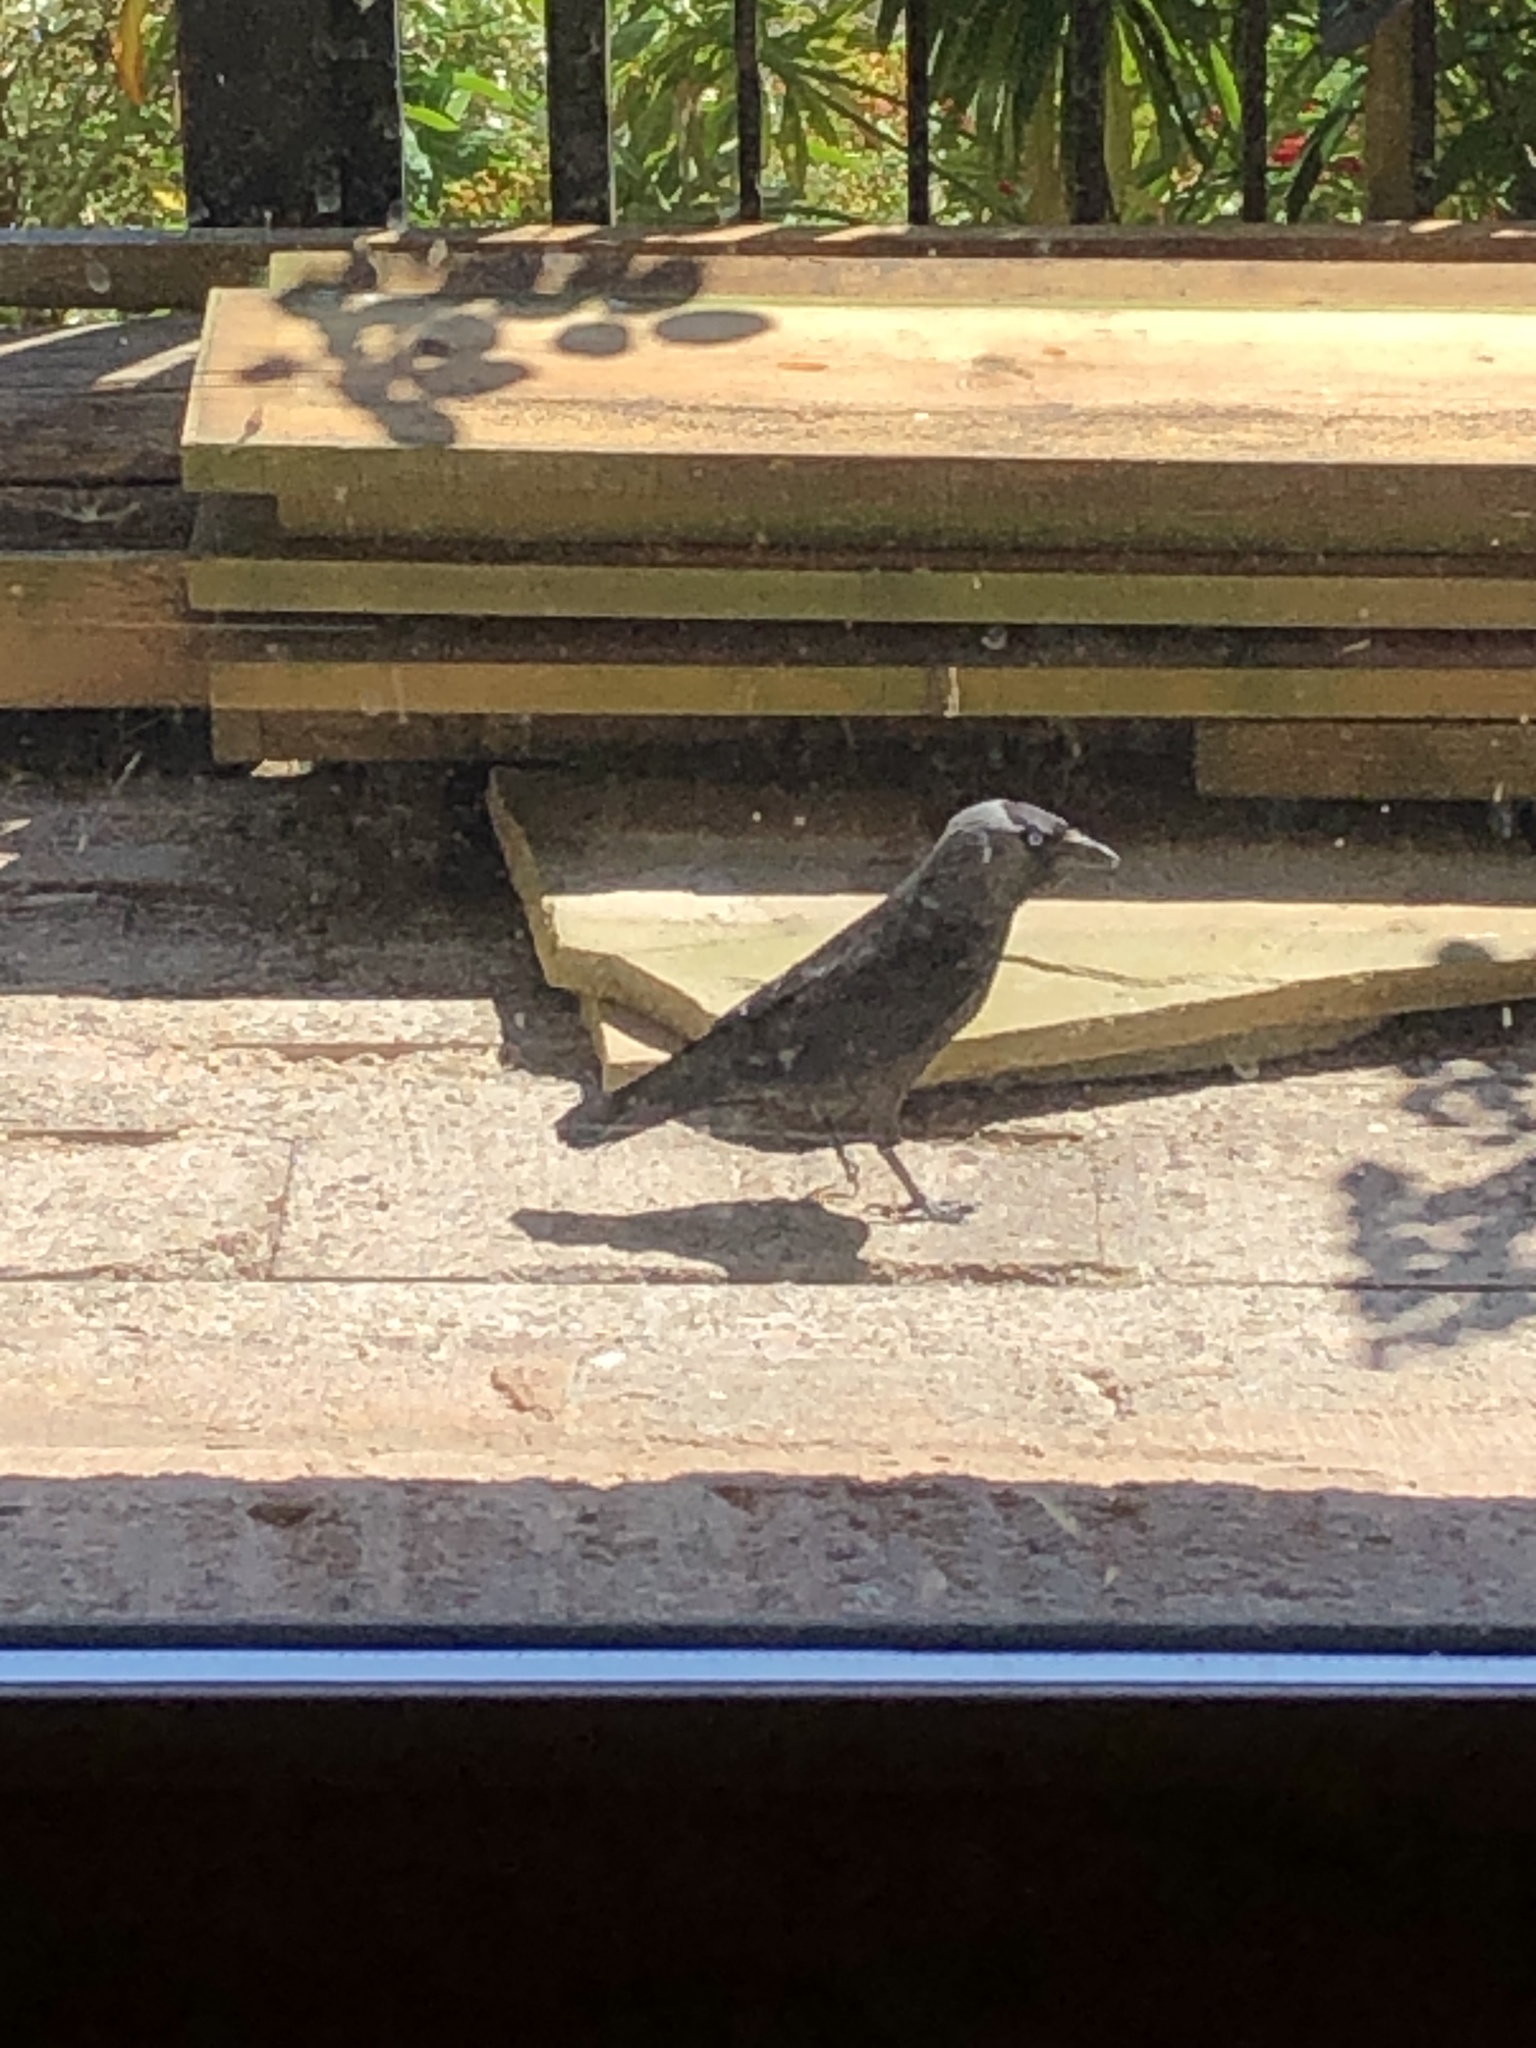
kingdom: Animalia
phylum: Chordata
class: Aves
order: Passeriformes
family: Corvidae
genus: Coloeus
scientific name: Coloeus monedula
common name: Western jackdaw
